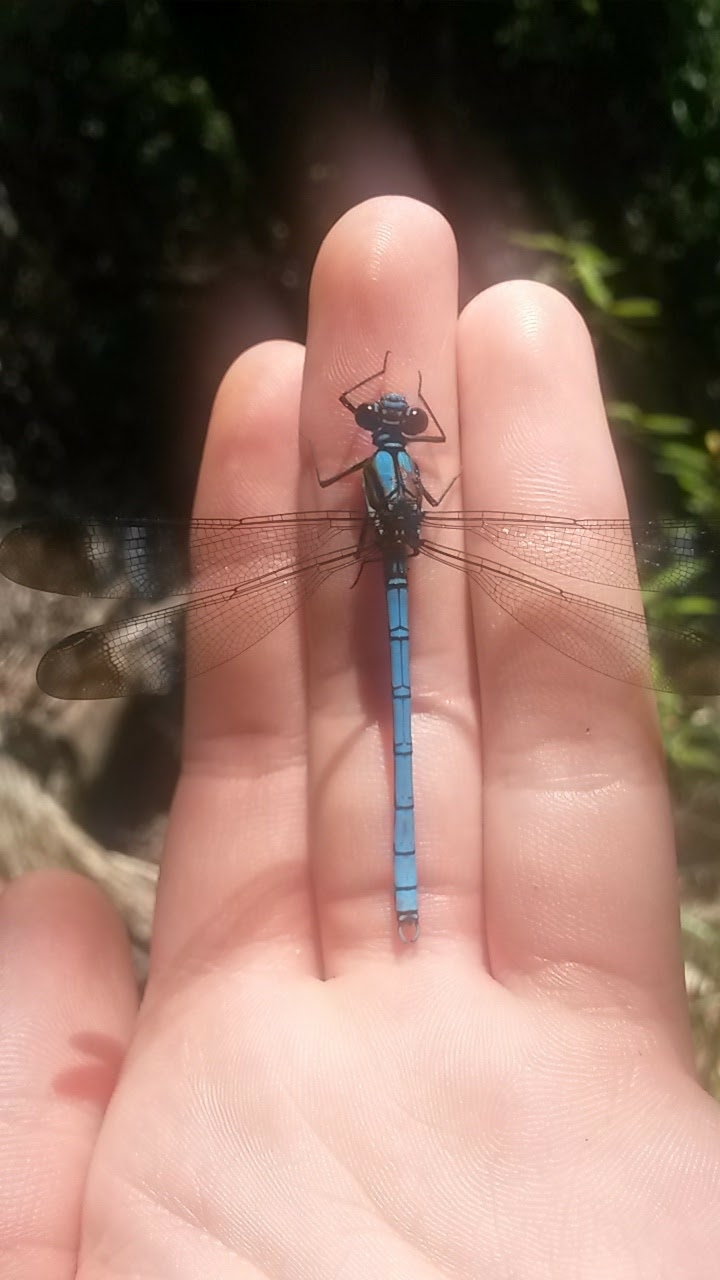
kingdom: Animalia
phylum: Arthropoda
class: Insecta
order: Odonata
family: Lestoideidae
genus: Diphlebia
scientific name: Diphlebia lestoides
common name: Whitewater rockmaster
